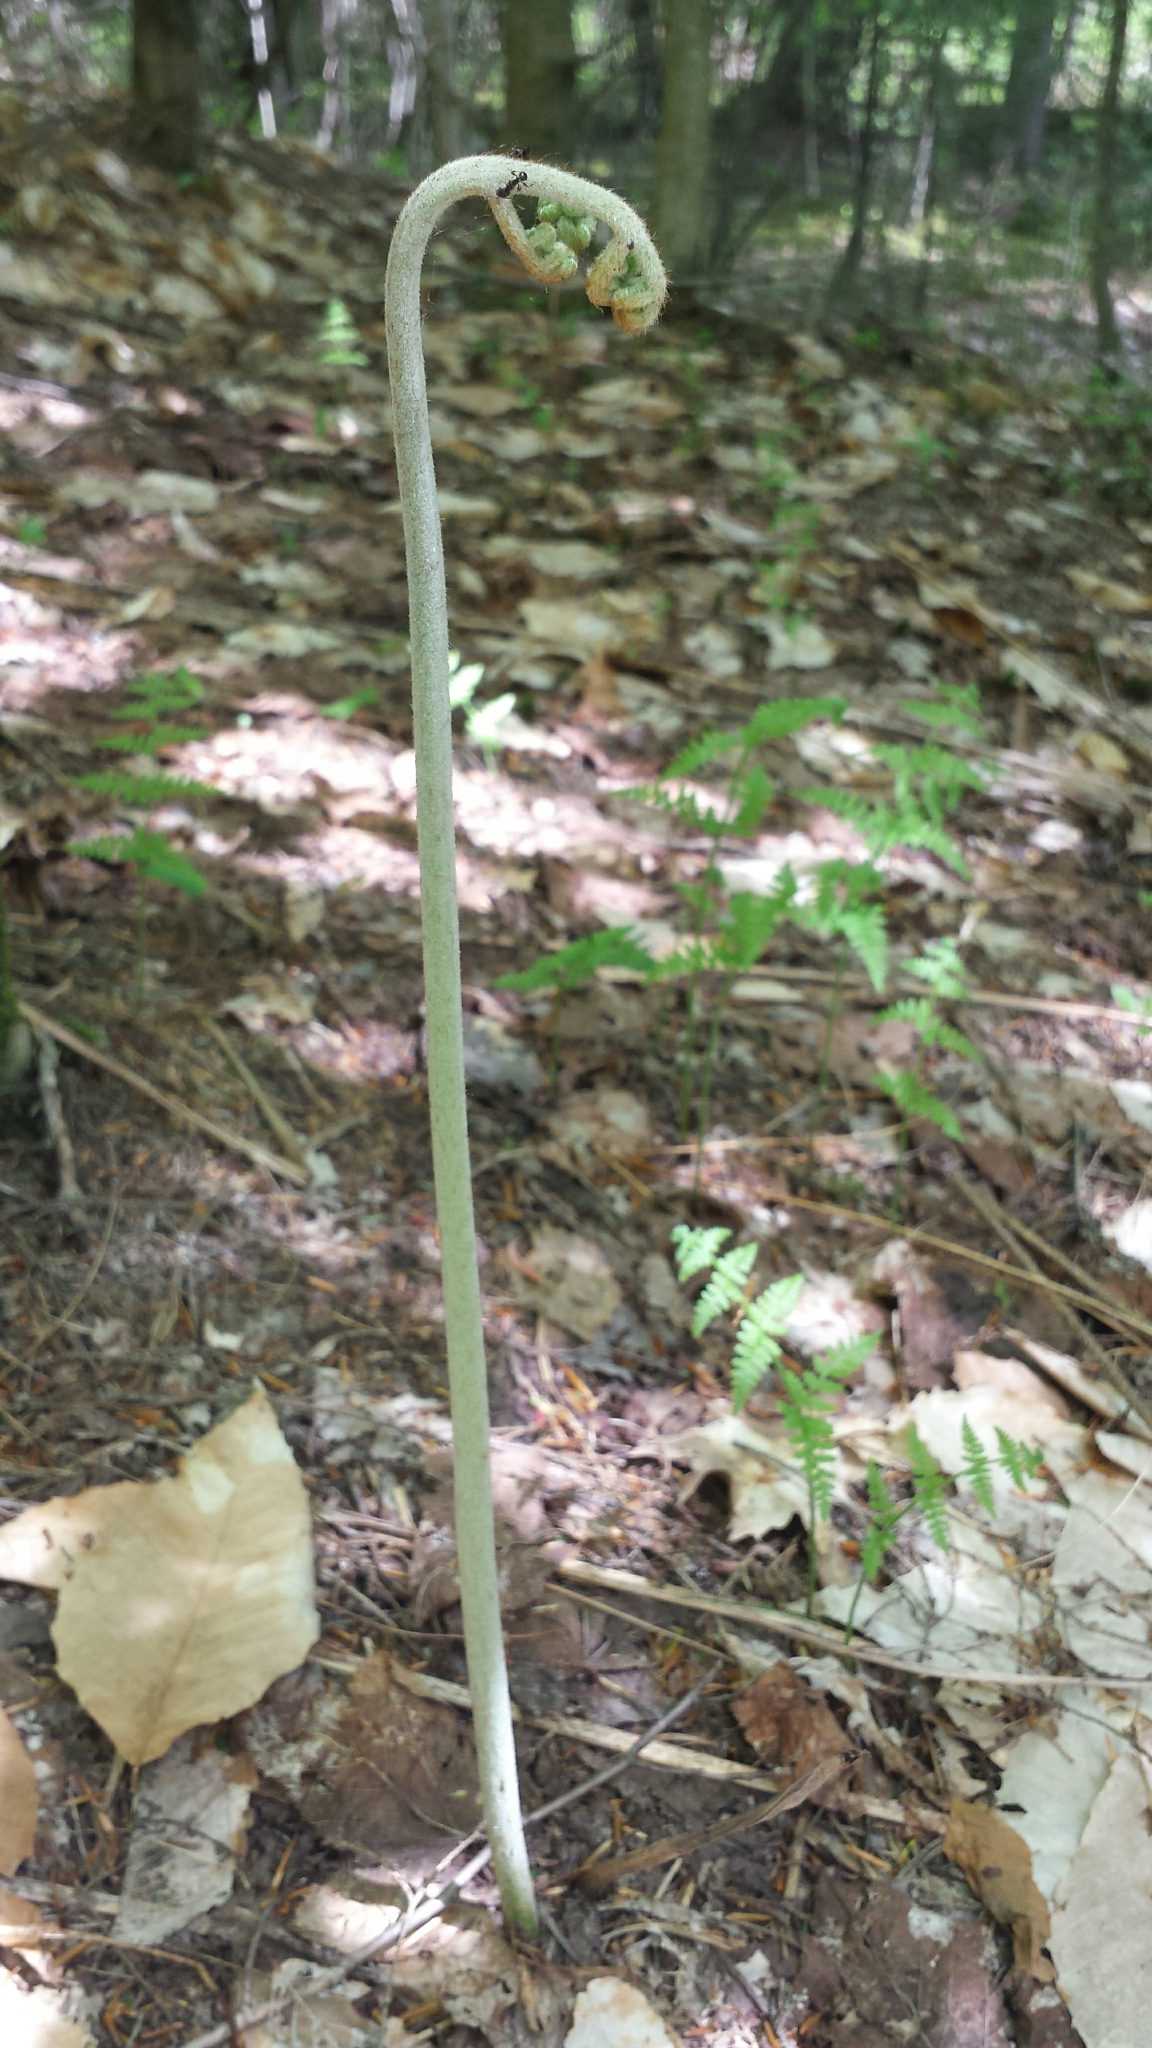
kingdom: Plantae
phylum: Tracheophyta
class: Polypodiopsida
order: Polypodiales
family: Dennstaedtiaceae
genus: Pteridium
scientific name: Pteridium aquilinum
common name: Bracken
